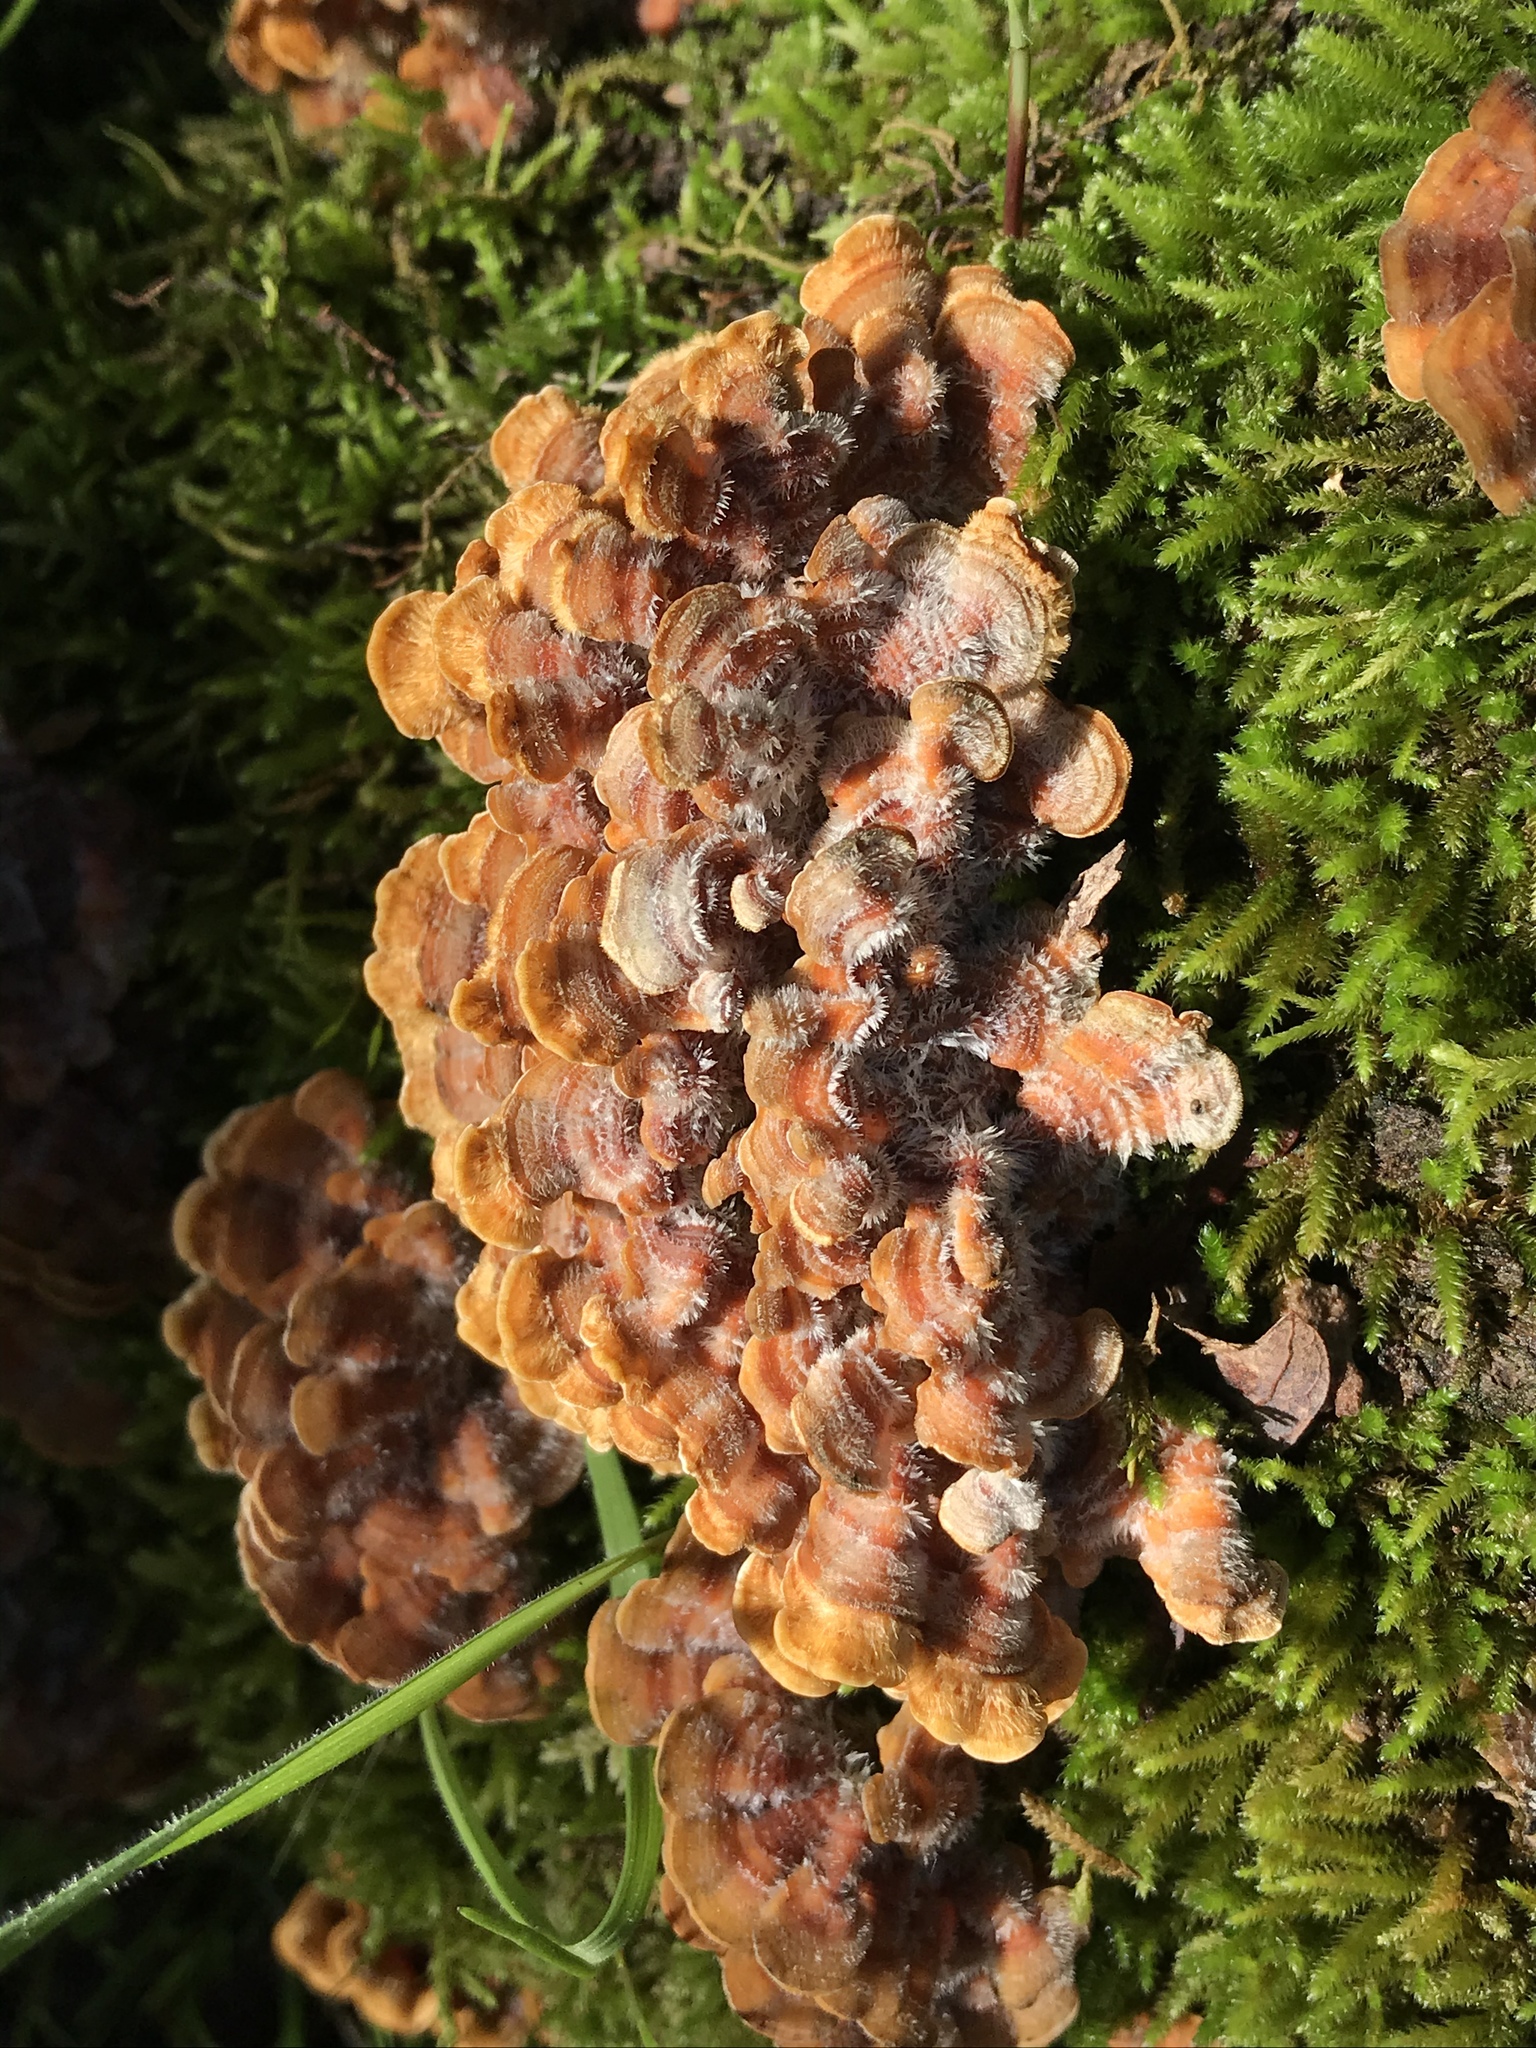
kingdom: Fungi
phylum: Basidiomycota
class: Agaricomycetes
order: Russulales
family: Stereaceae
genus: Stereum
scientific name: Stereum hirsutum
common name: Hairy curtain crust
